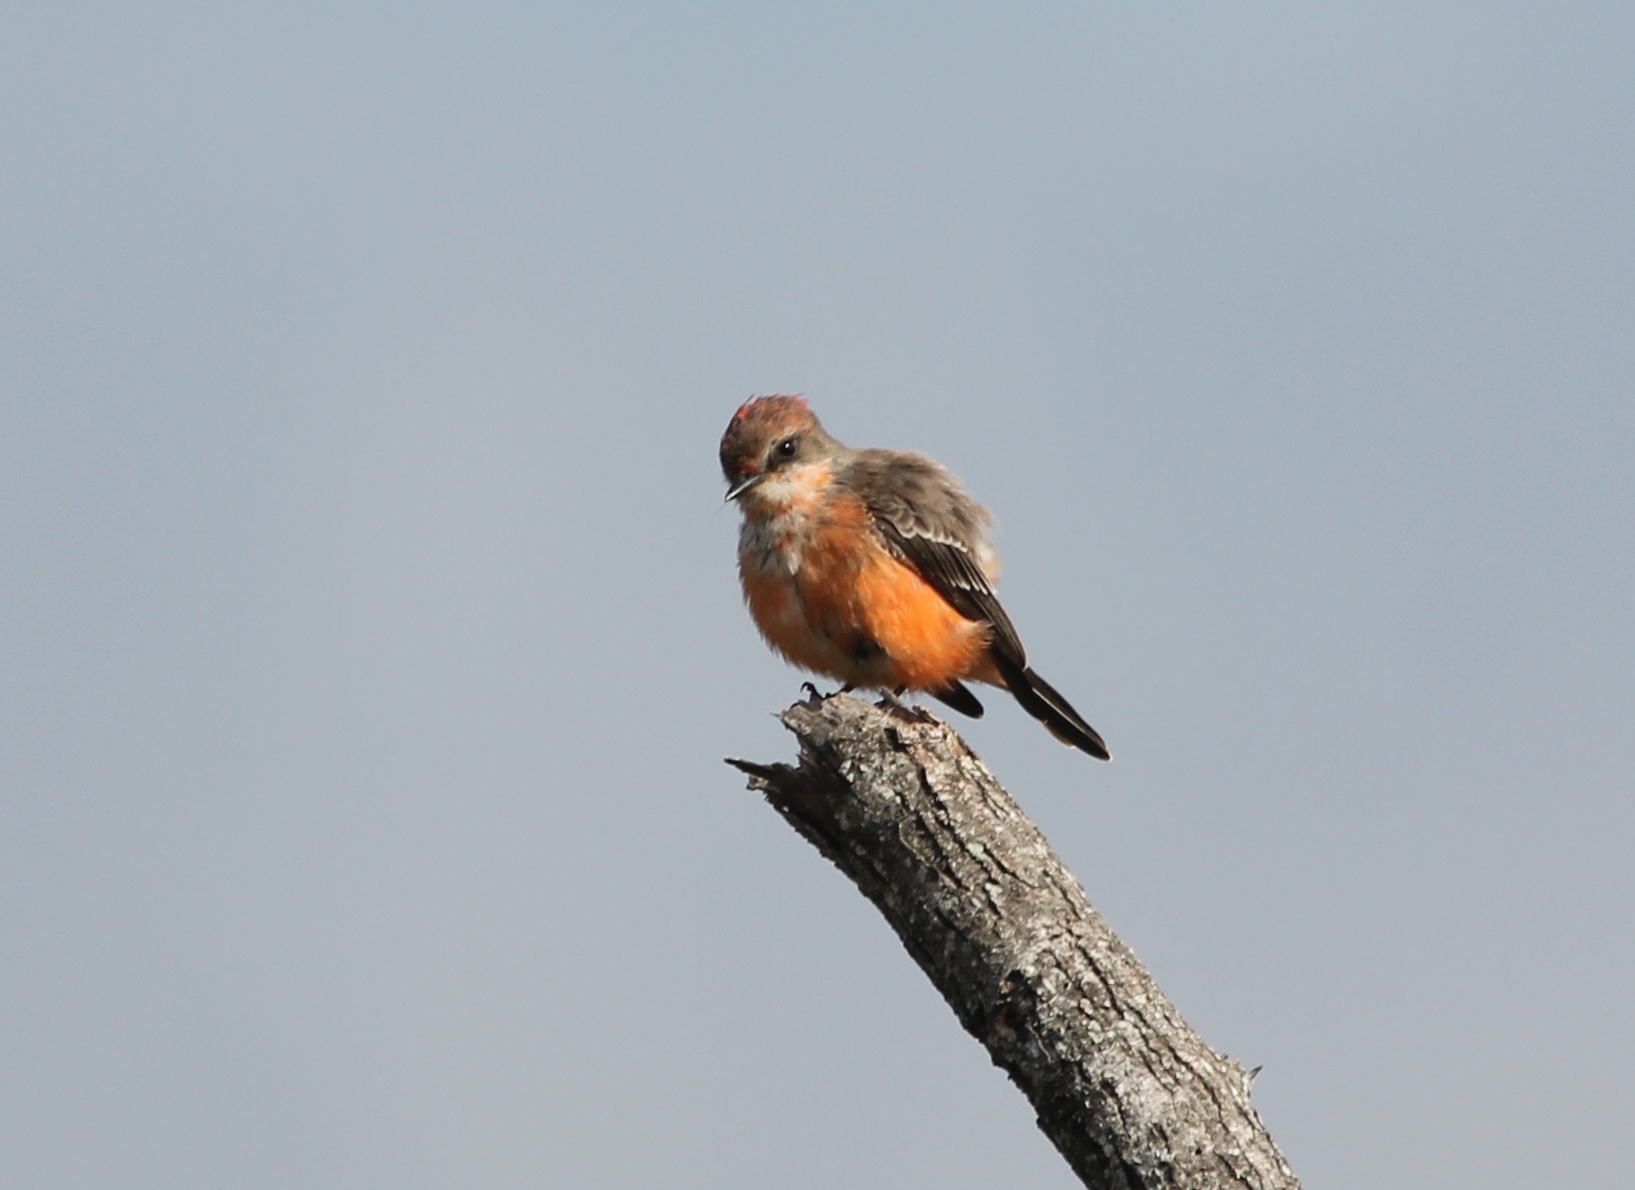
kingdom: Animalia
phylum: Chordata
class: Aves
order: Passeriformes
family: Tyrannidae
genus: Pyrocephalus
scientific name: Pyrocephalus rubinus
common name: Vermilion flycatcher
